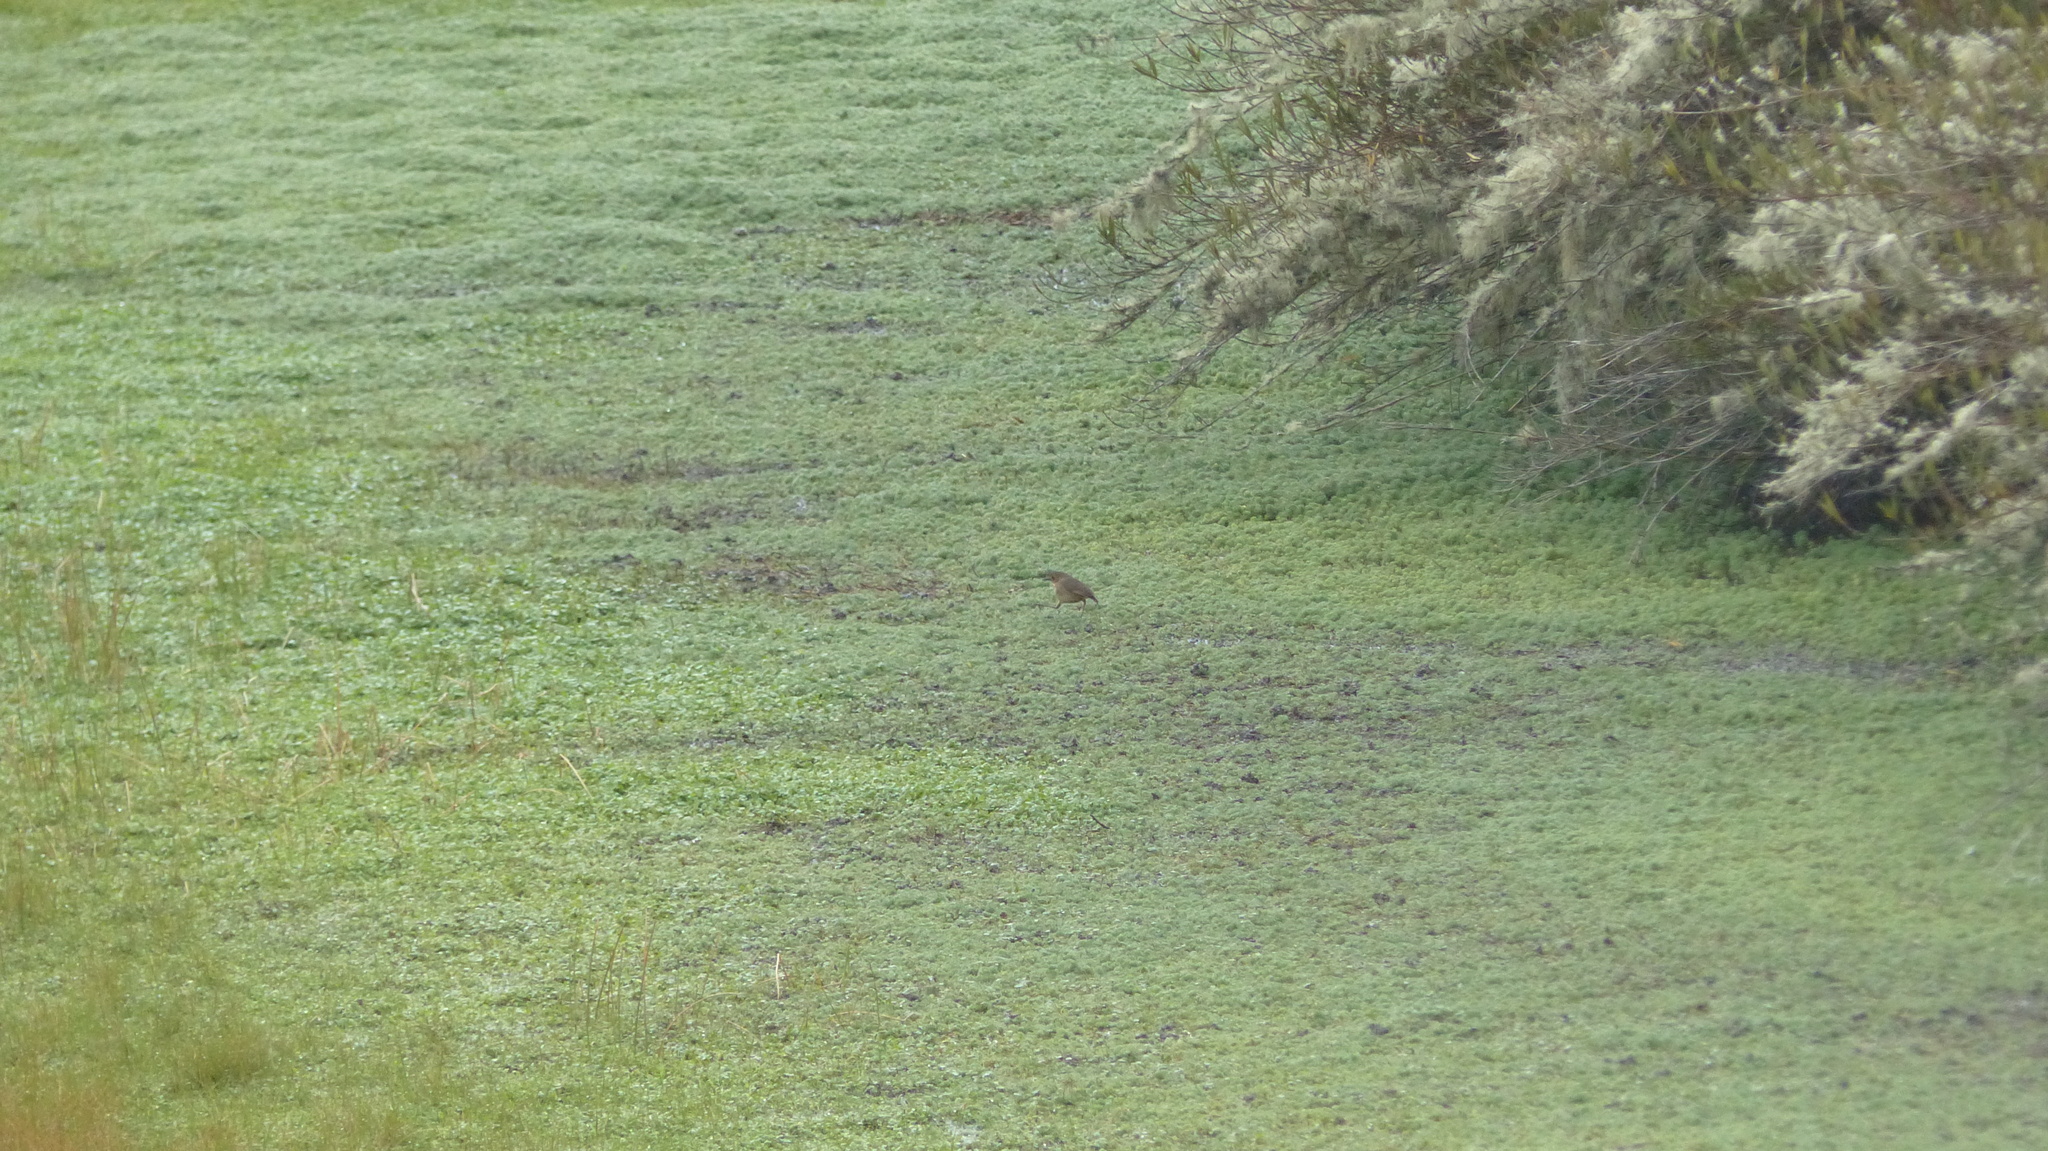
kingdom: Animalia
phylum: Chordata
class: Aves
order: Passeriformes
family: Grallariidae
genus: Grallaria
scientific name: Grallaria alticola
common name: Boyaca antpitta
